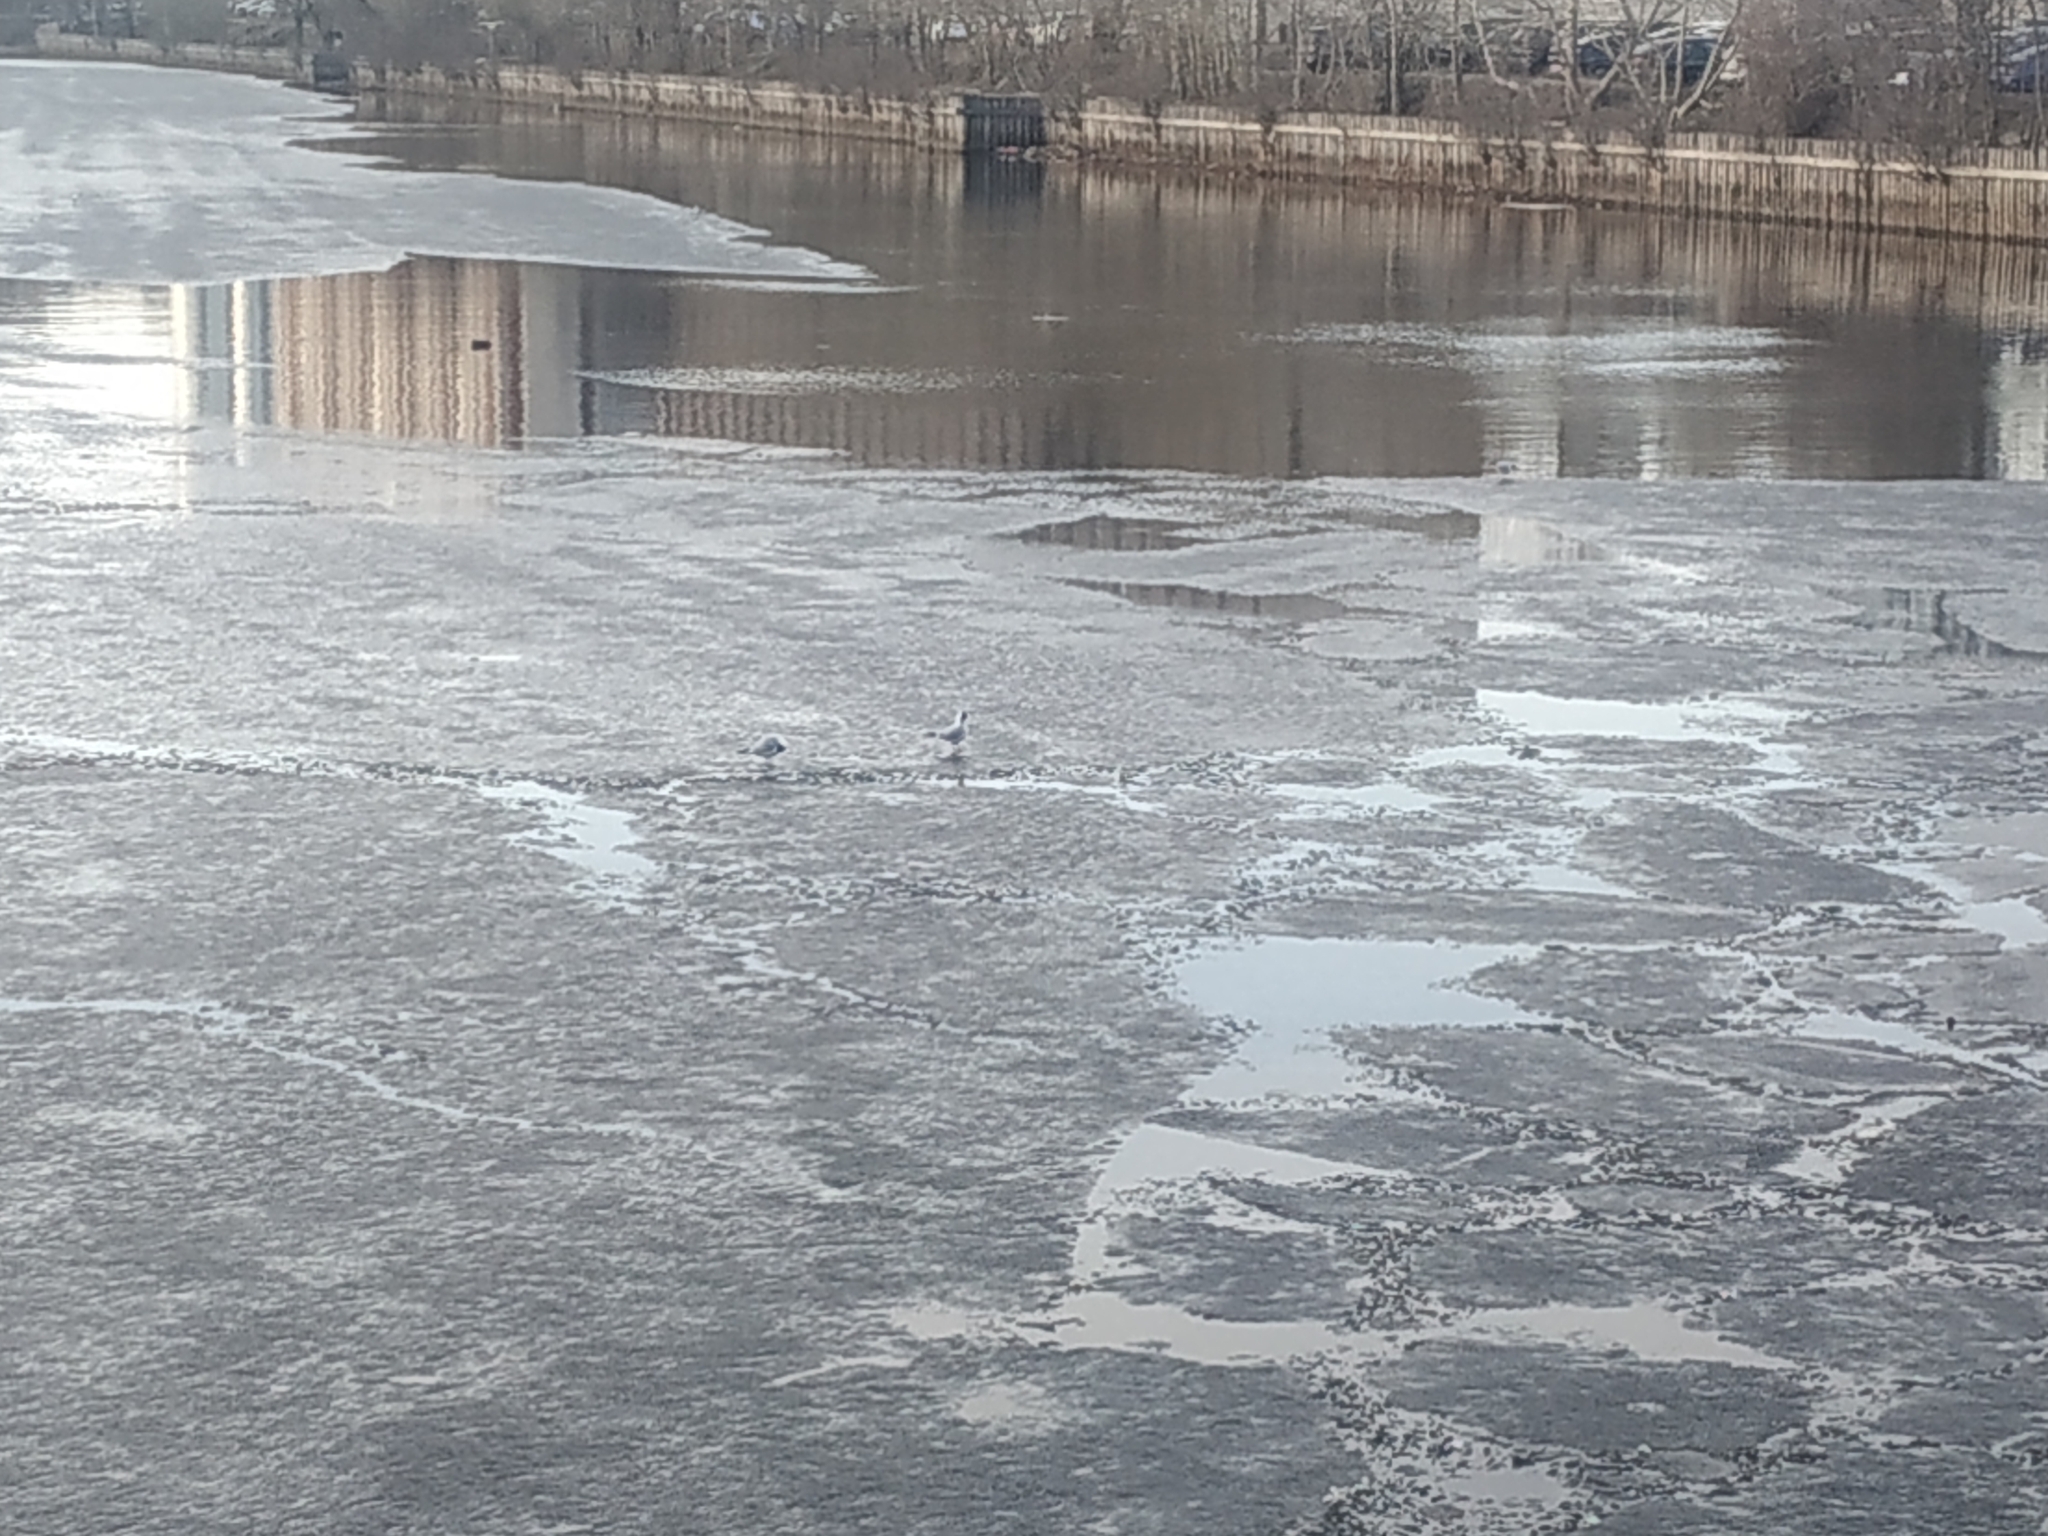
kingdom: Animalia
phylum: Chordata
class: Aves
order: Charadriiformes
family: Laridae
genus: Chroicocephalus
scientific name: Chroicocephalus ridibundus
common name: Black-headed gull
